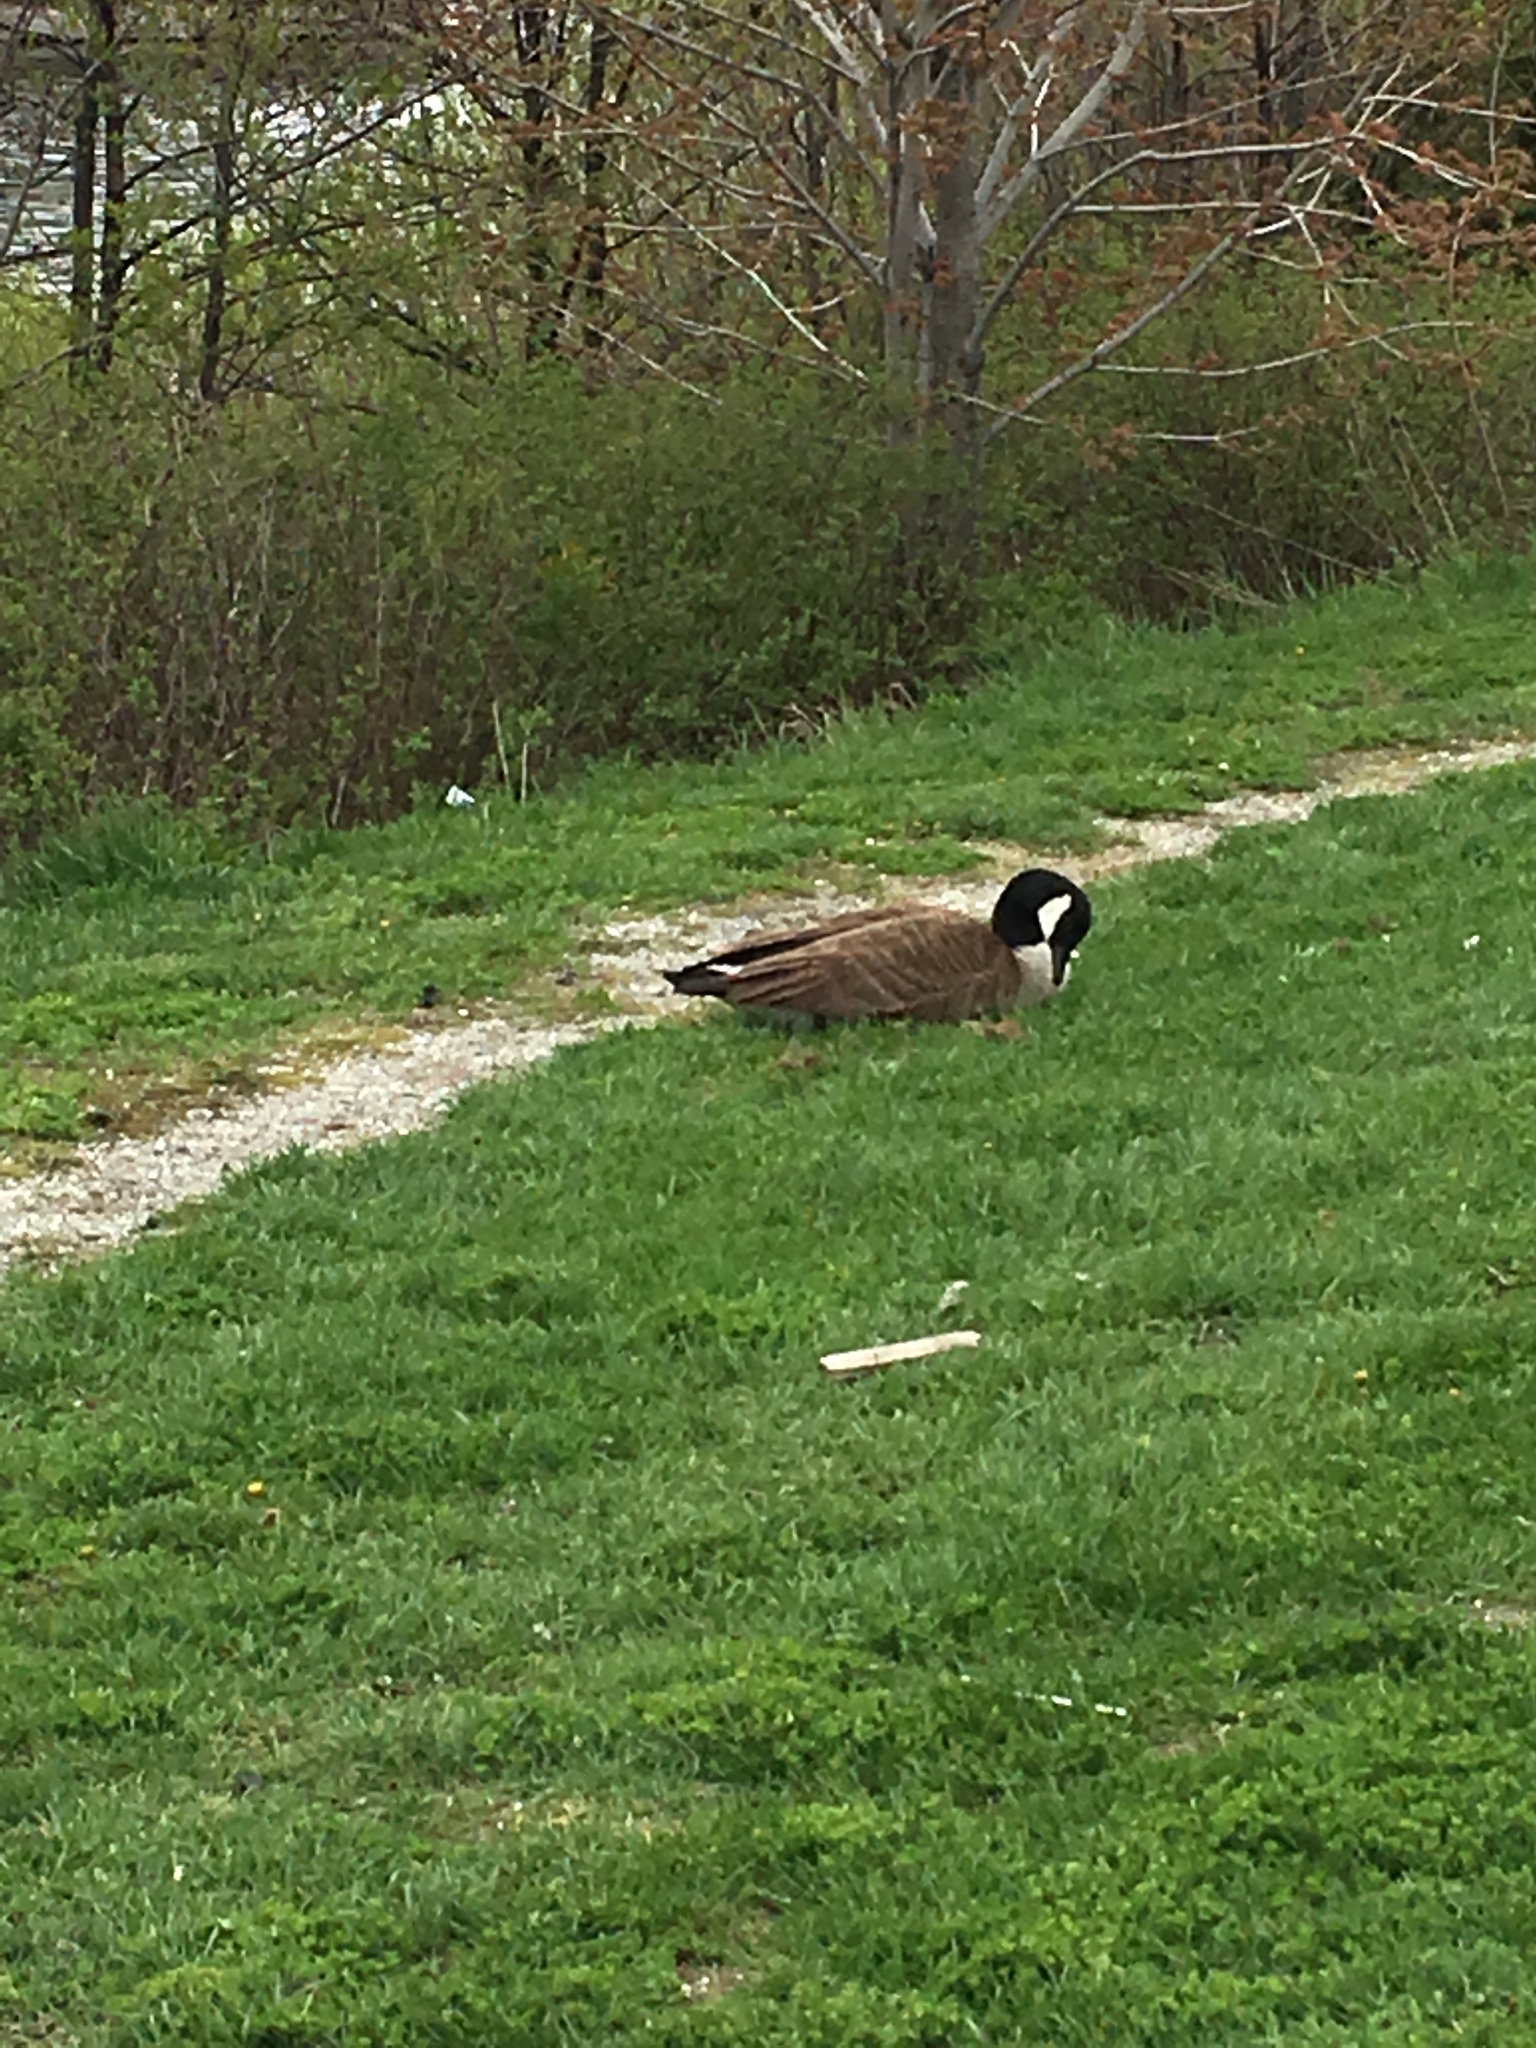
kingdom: Animalia
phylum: Chordata
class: Aves
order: Anseriformes
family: Anatidae
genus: Branta
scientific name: Branta canadensis
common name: Canada goose
